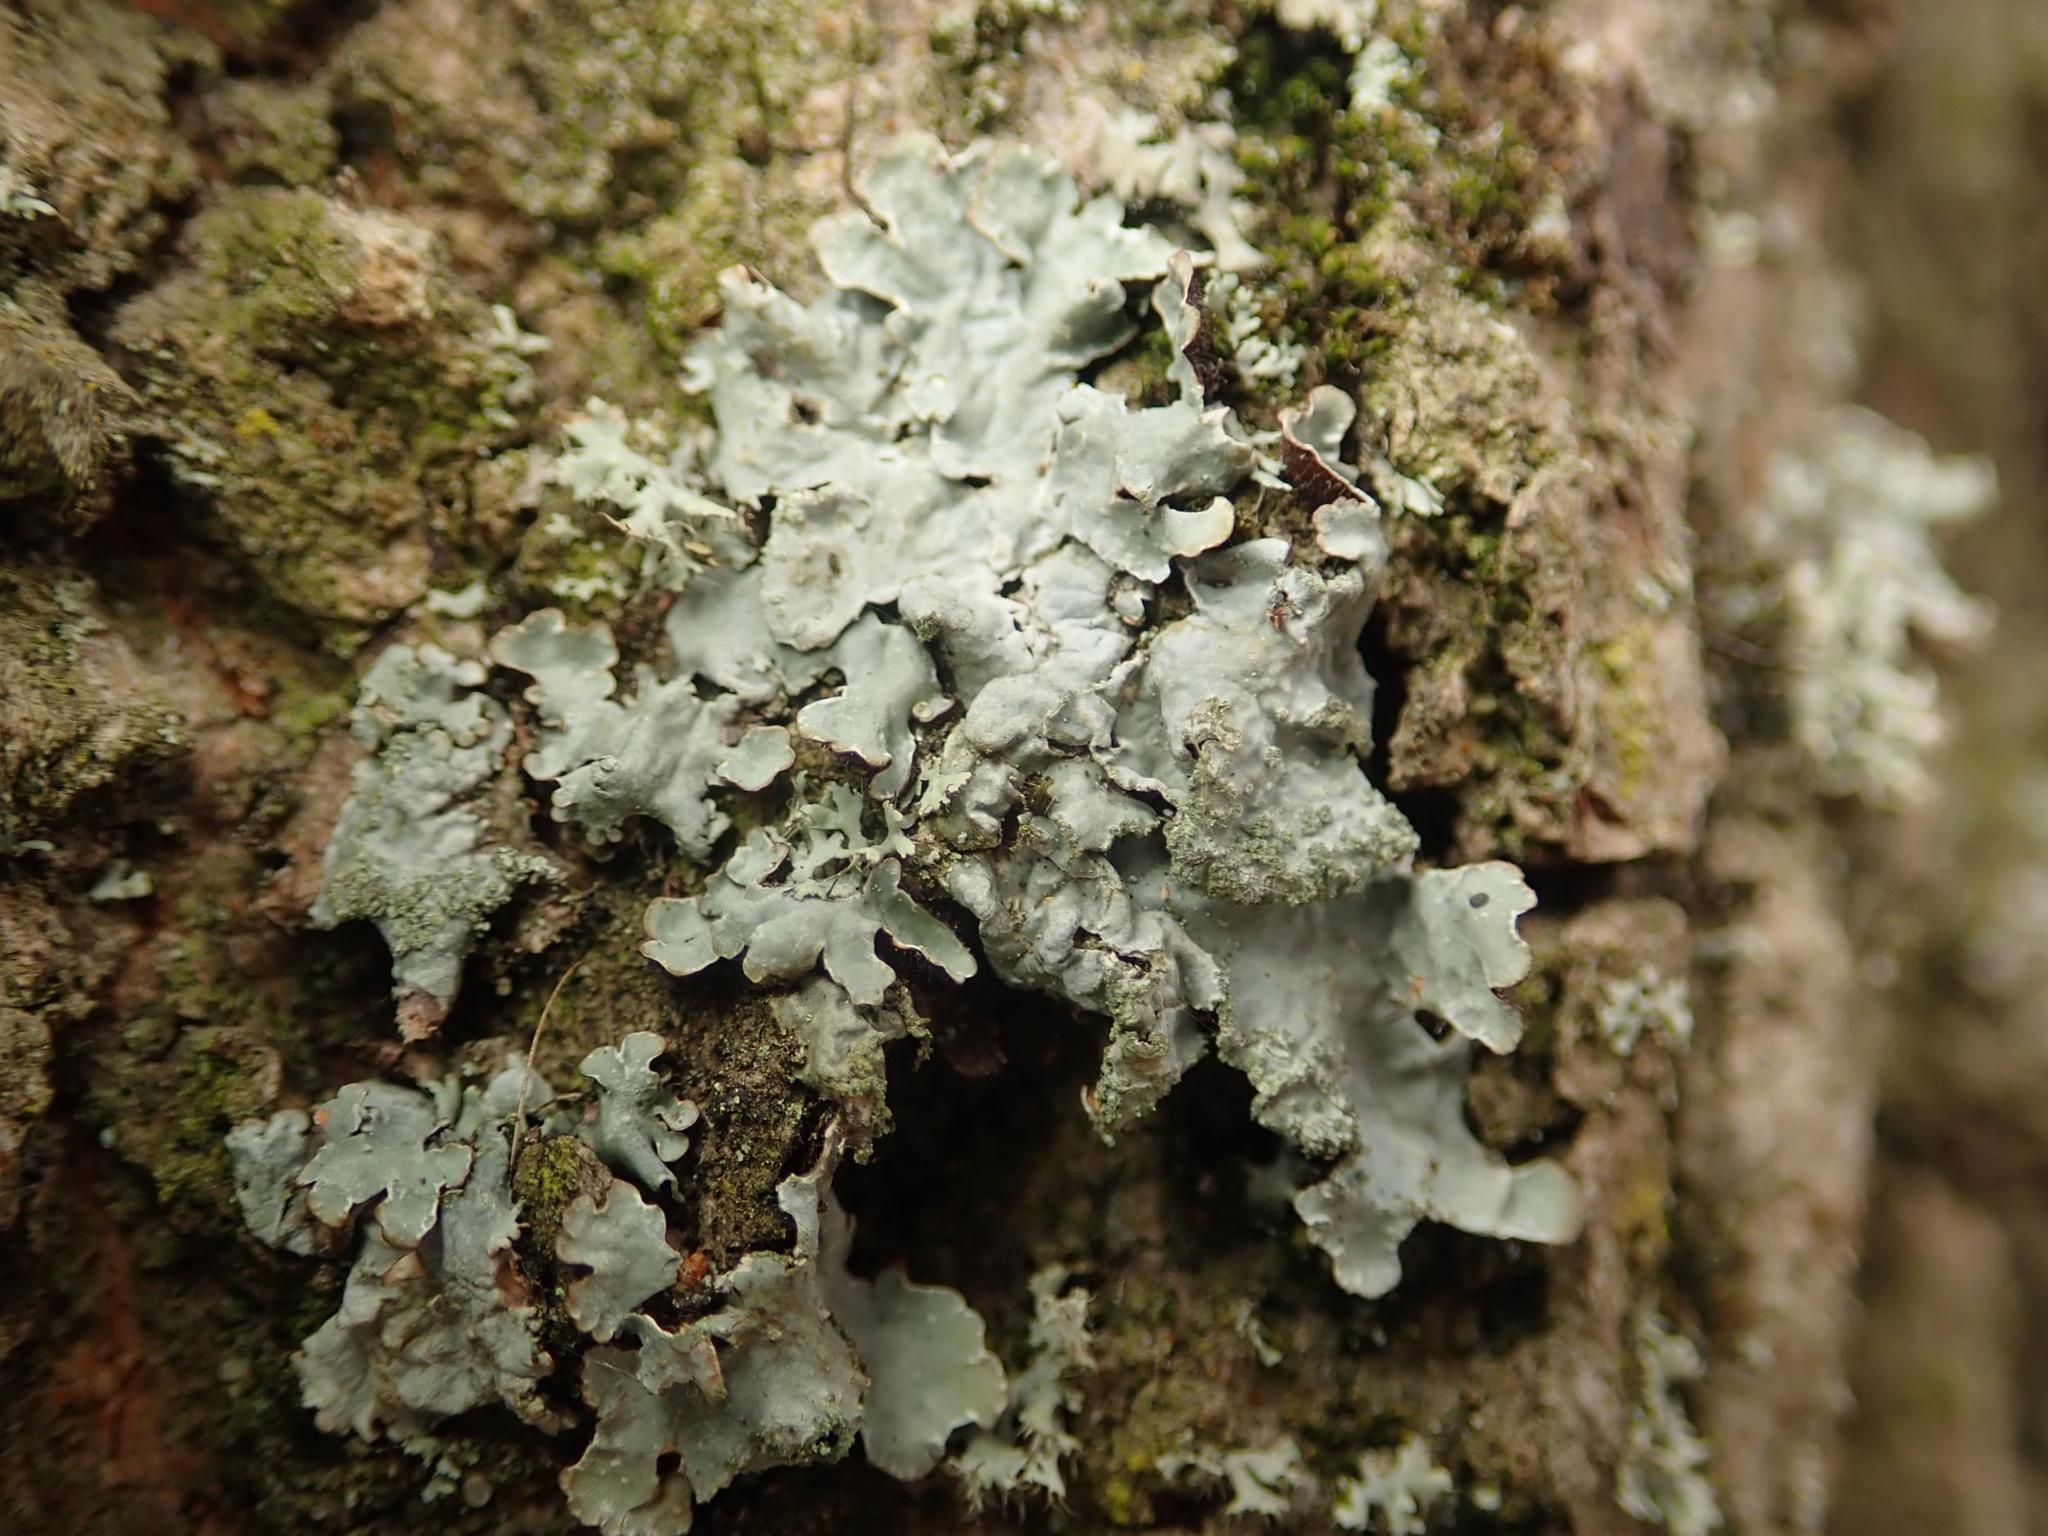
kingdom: Fungi
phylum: Ascomycota
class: Lecanoromycetes
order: Lecanorales
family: Parmeliaceae
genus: Parmelia
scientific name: Parmelia sulcata
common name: Netted shield lichen
